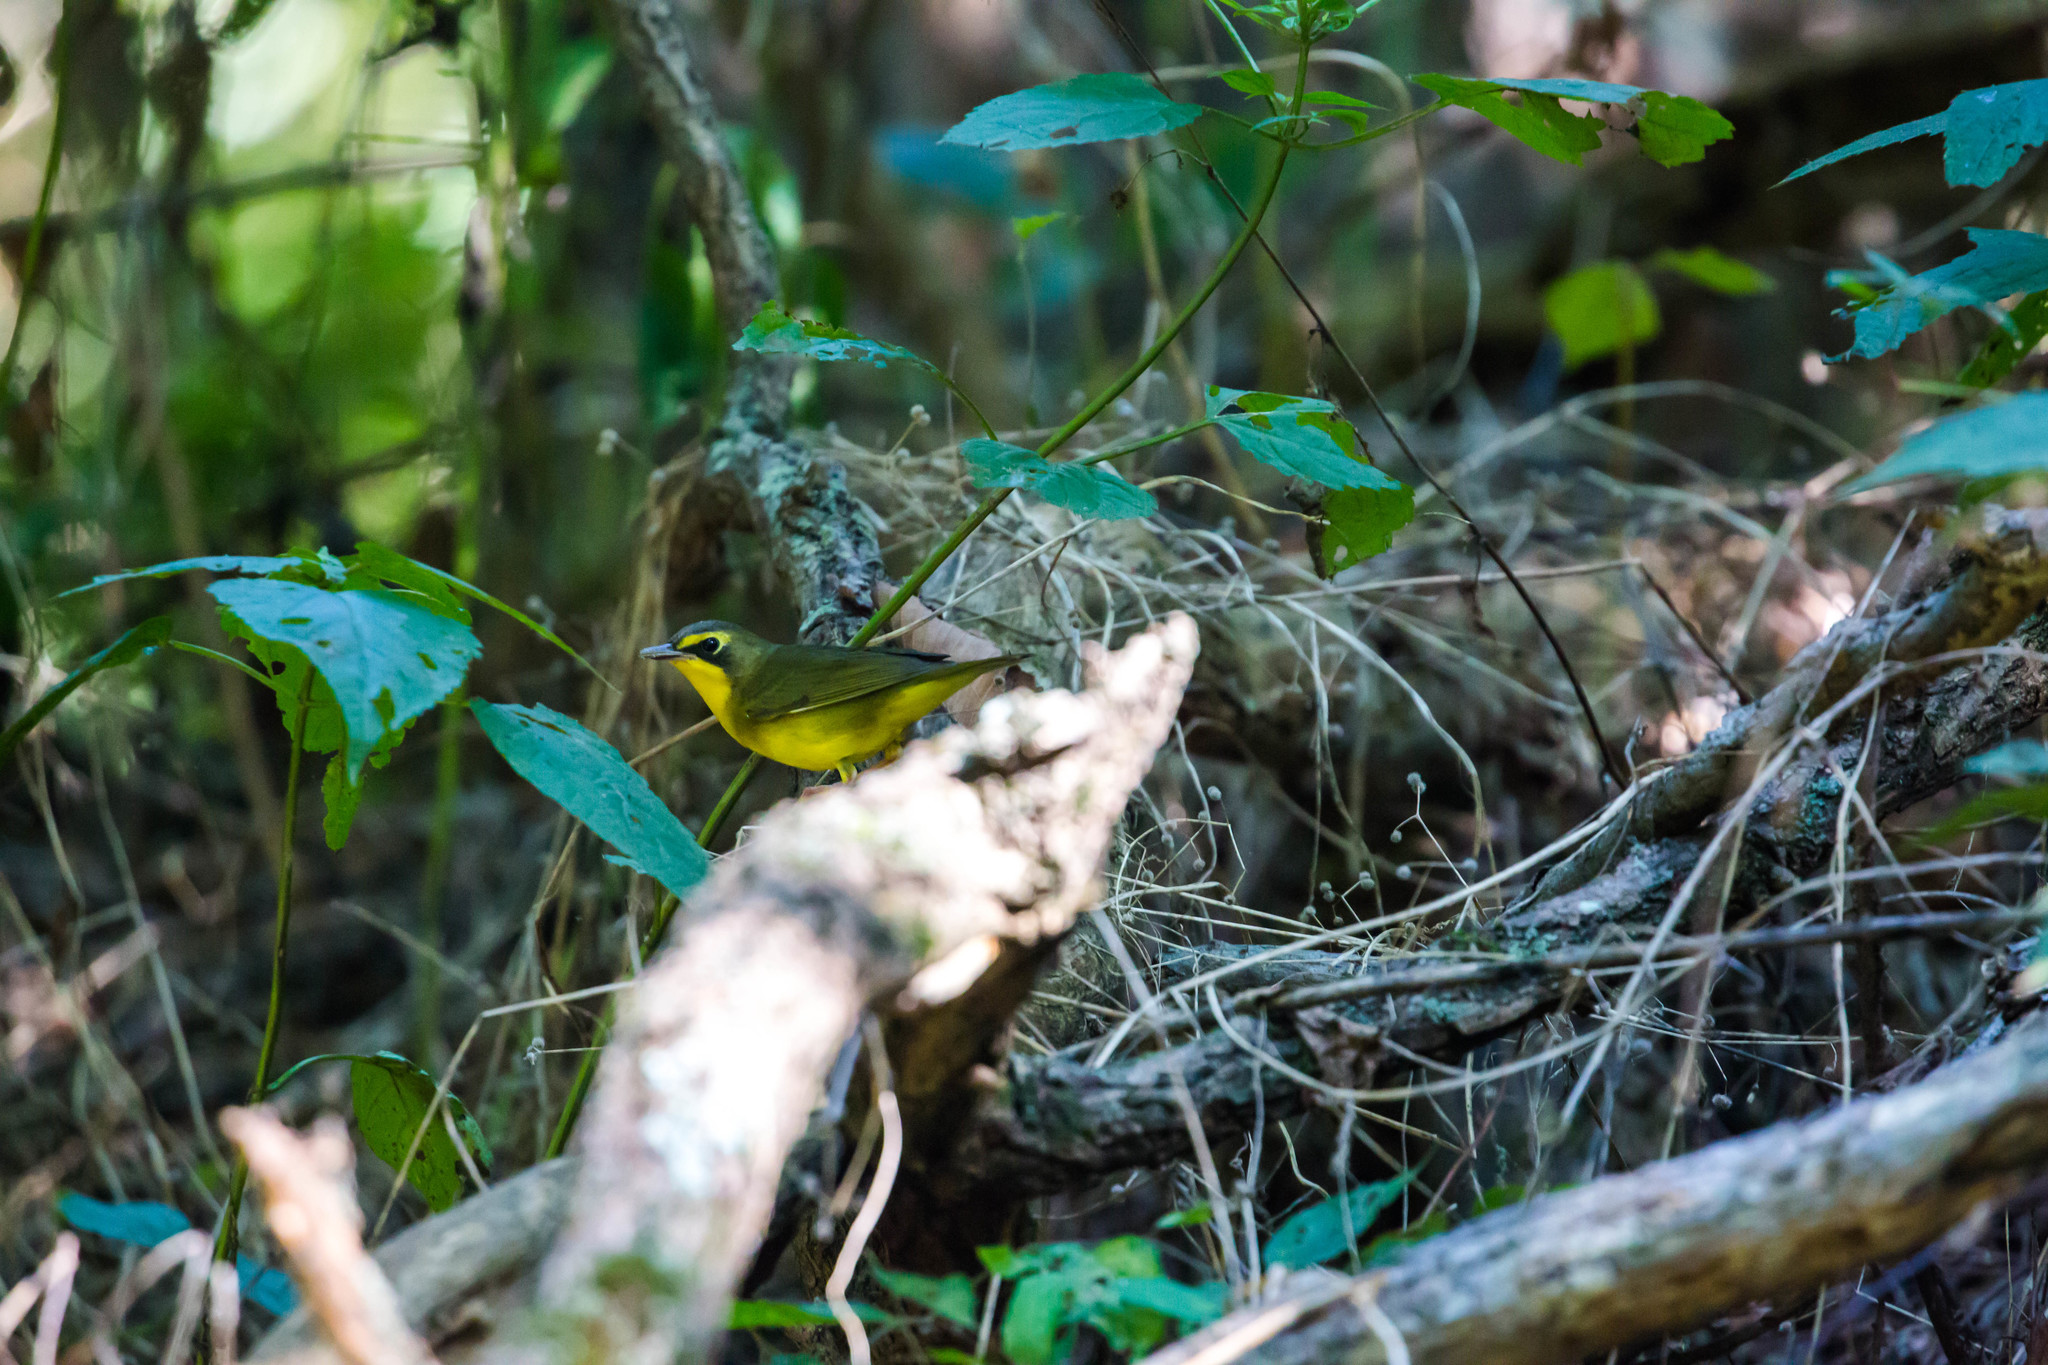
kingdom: Animalia
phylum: Chordata
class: Aves
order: Passeriformes
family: Parulidae
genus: Geothlypis
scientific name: Geothlypis formosa
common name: Kentucky warbler
